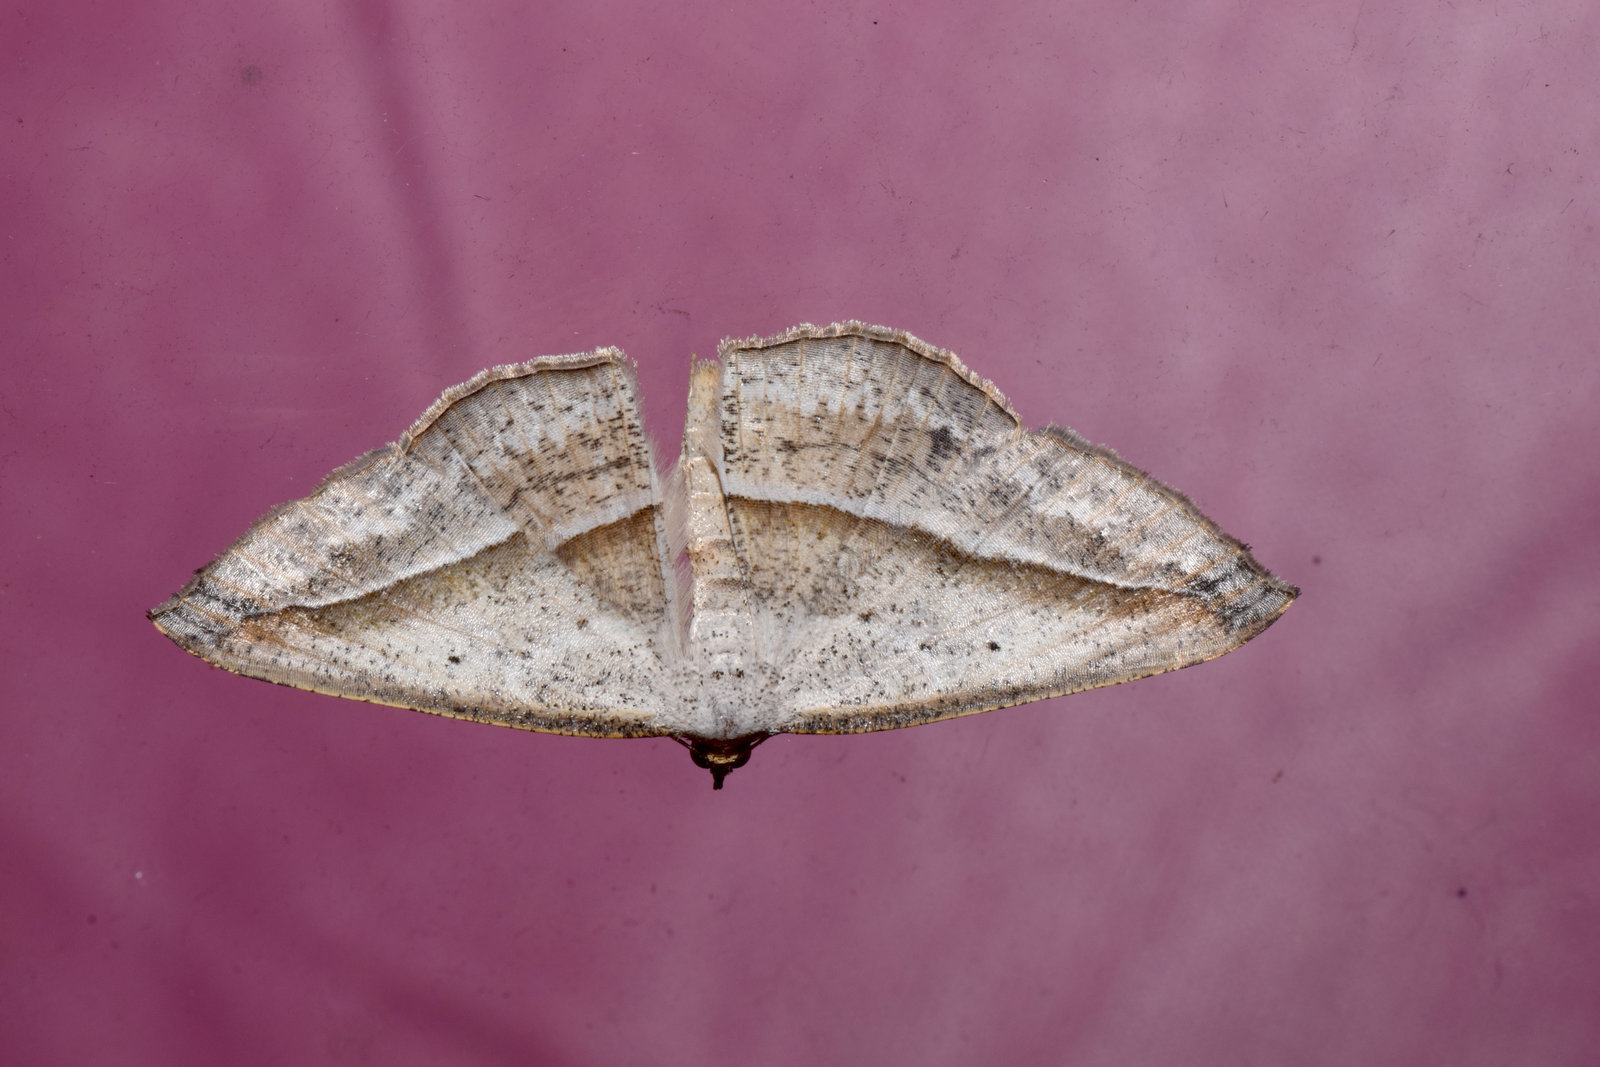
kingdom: Animalia
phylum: Arthropoda
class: Insecta
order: Lepidoptera
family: Geometridae
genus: Nadagara
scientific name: Nadagara vigaia
